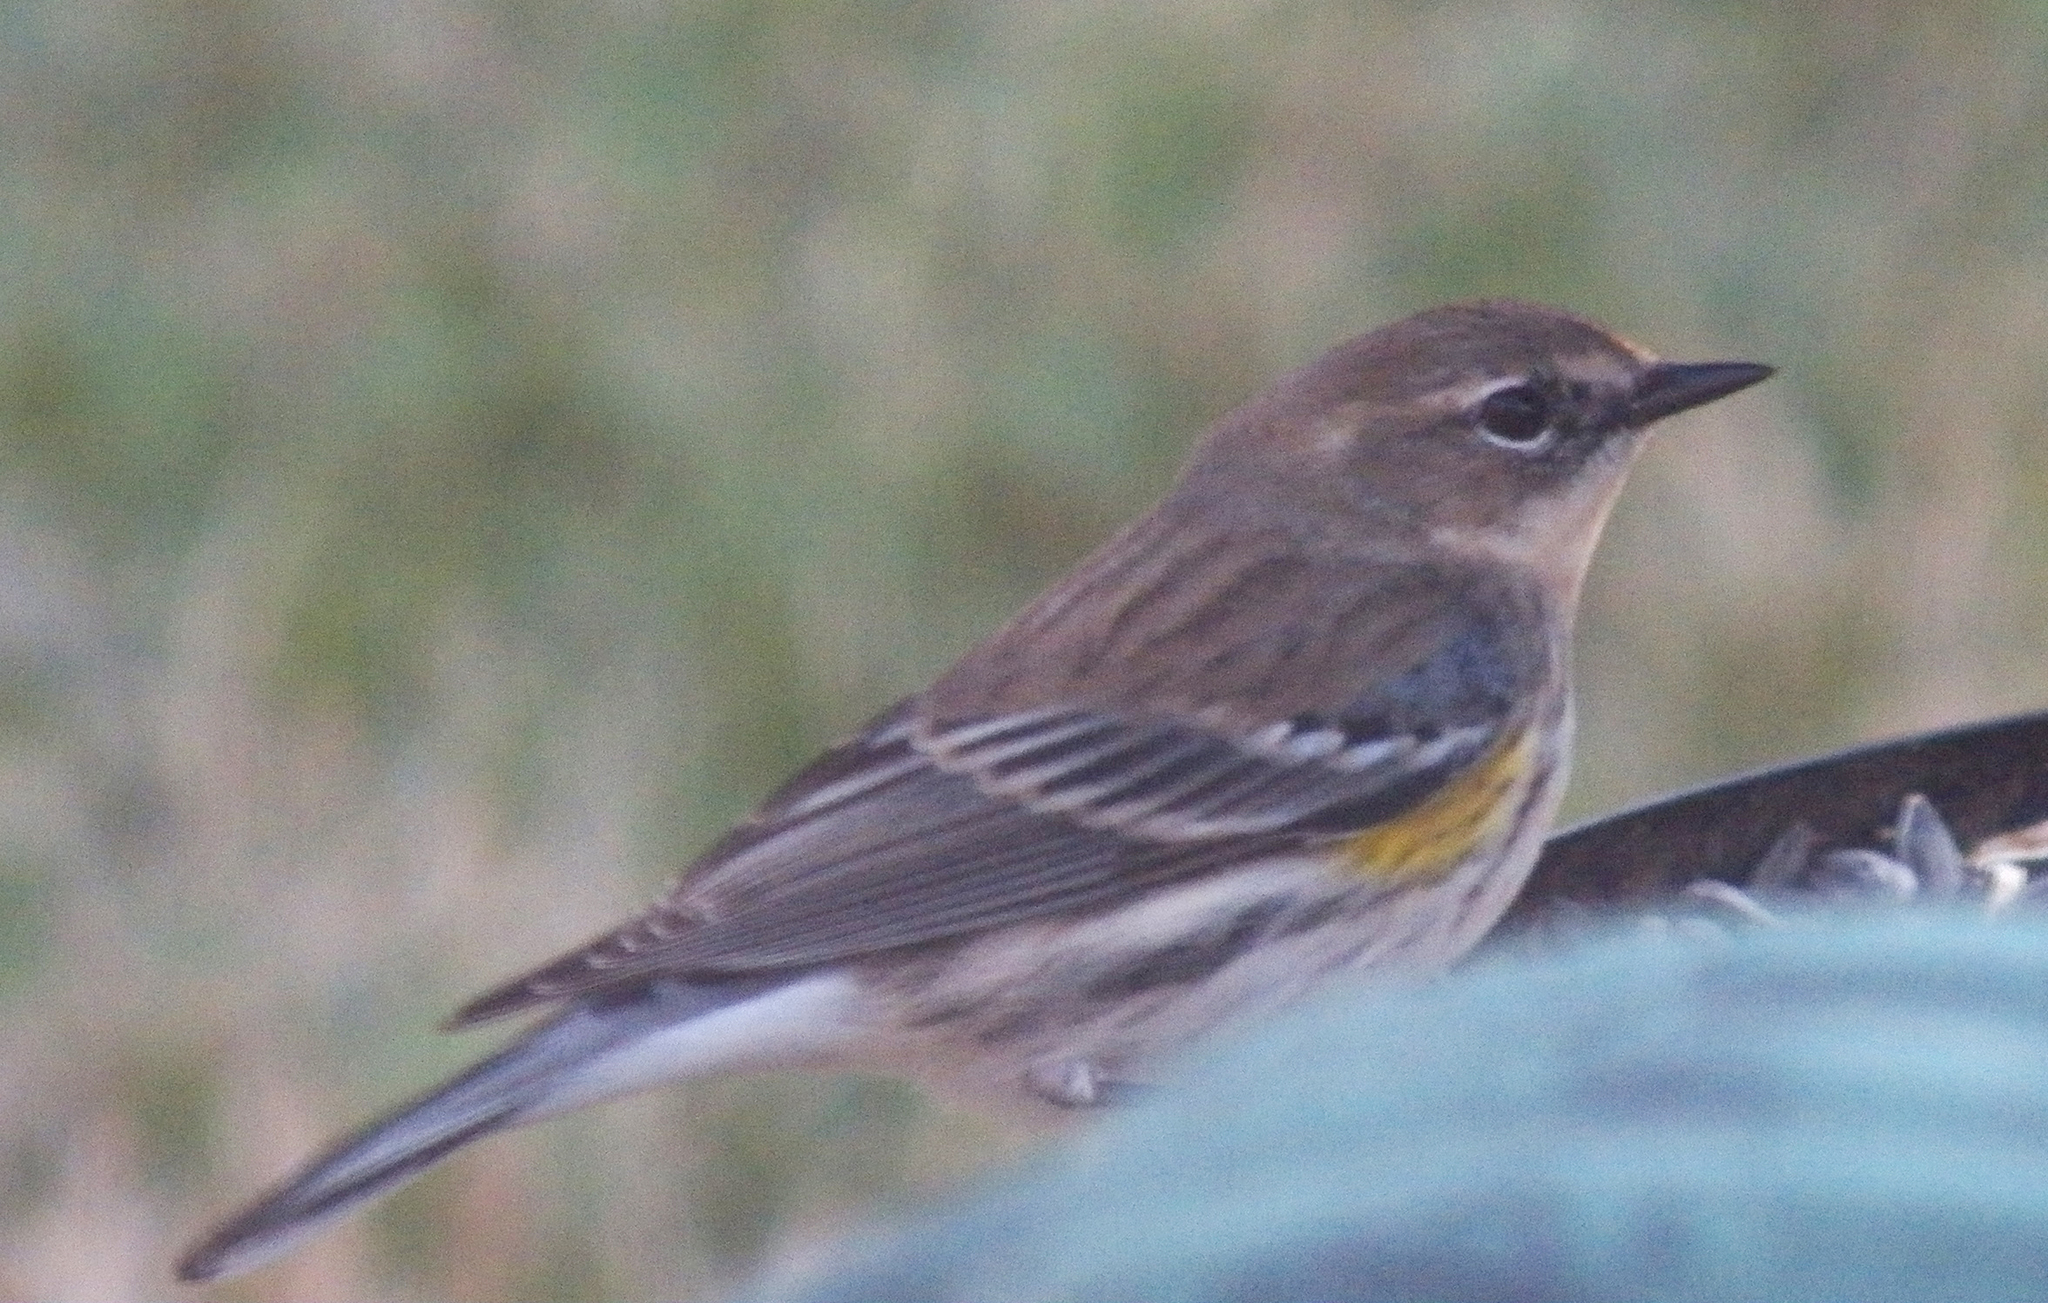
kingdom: Animalia
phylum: Chordata
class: Aves
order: Passeriformes
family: Parulidae
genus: Setophaga
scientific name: Setophaga coronata
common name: Myrtle warbler
